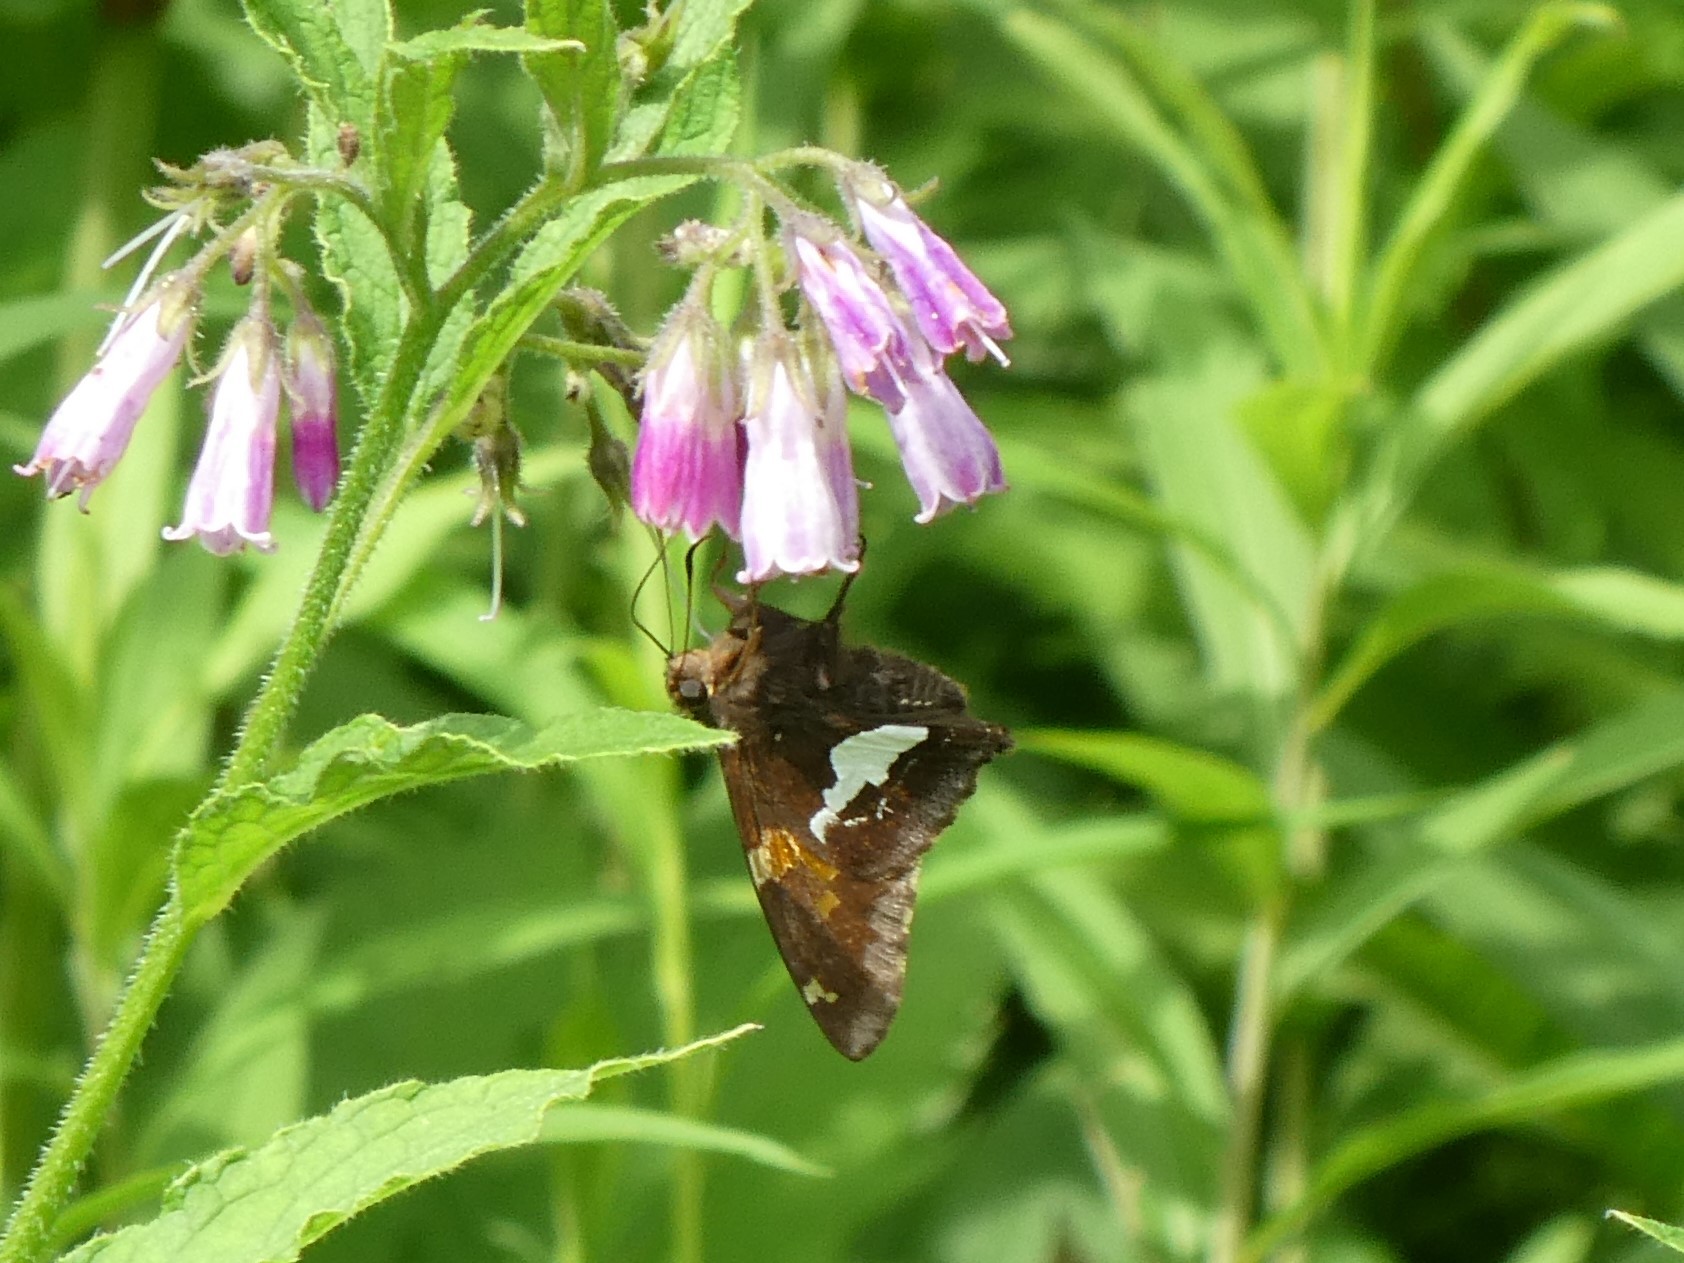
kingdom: Animalia
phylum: Arthropoda
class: Insecta
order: Lepidoptera
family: Hesperiidae
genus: Epargyreus
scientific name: Epargyreus clarus
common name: Silver-spotted skipper
